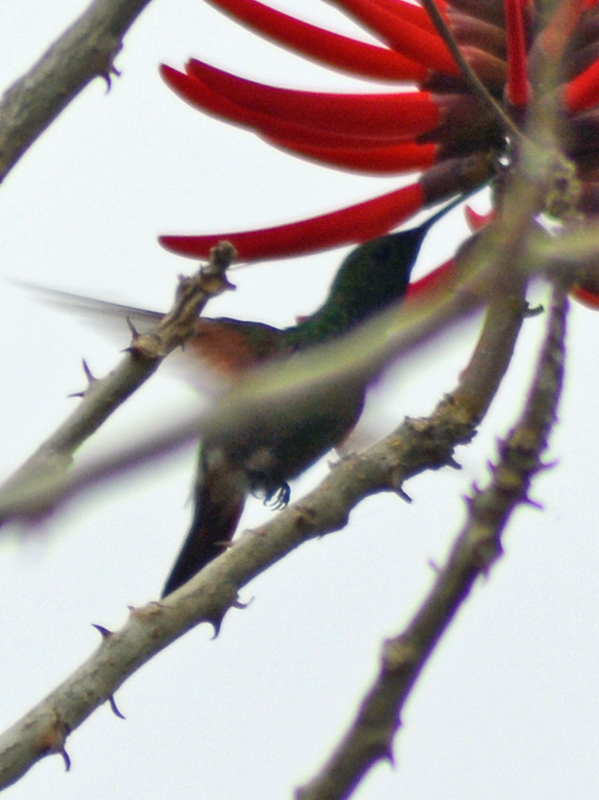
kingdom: Animalia
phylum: Chordata
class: Aves
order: Apodiformes
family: Trochilidae
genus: Saucerottia
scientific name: Saucerottia beryllina
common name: Berylline hummingbird
